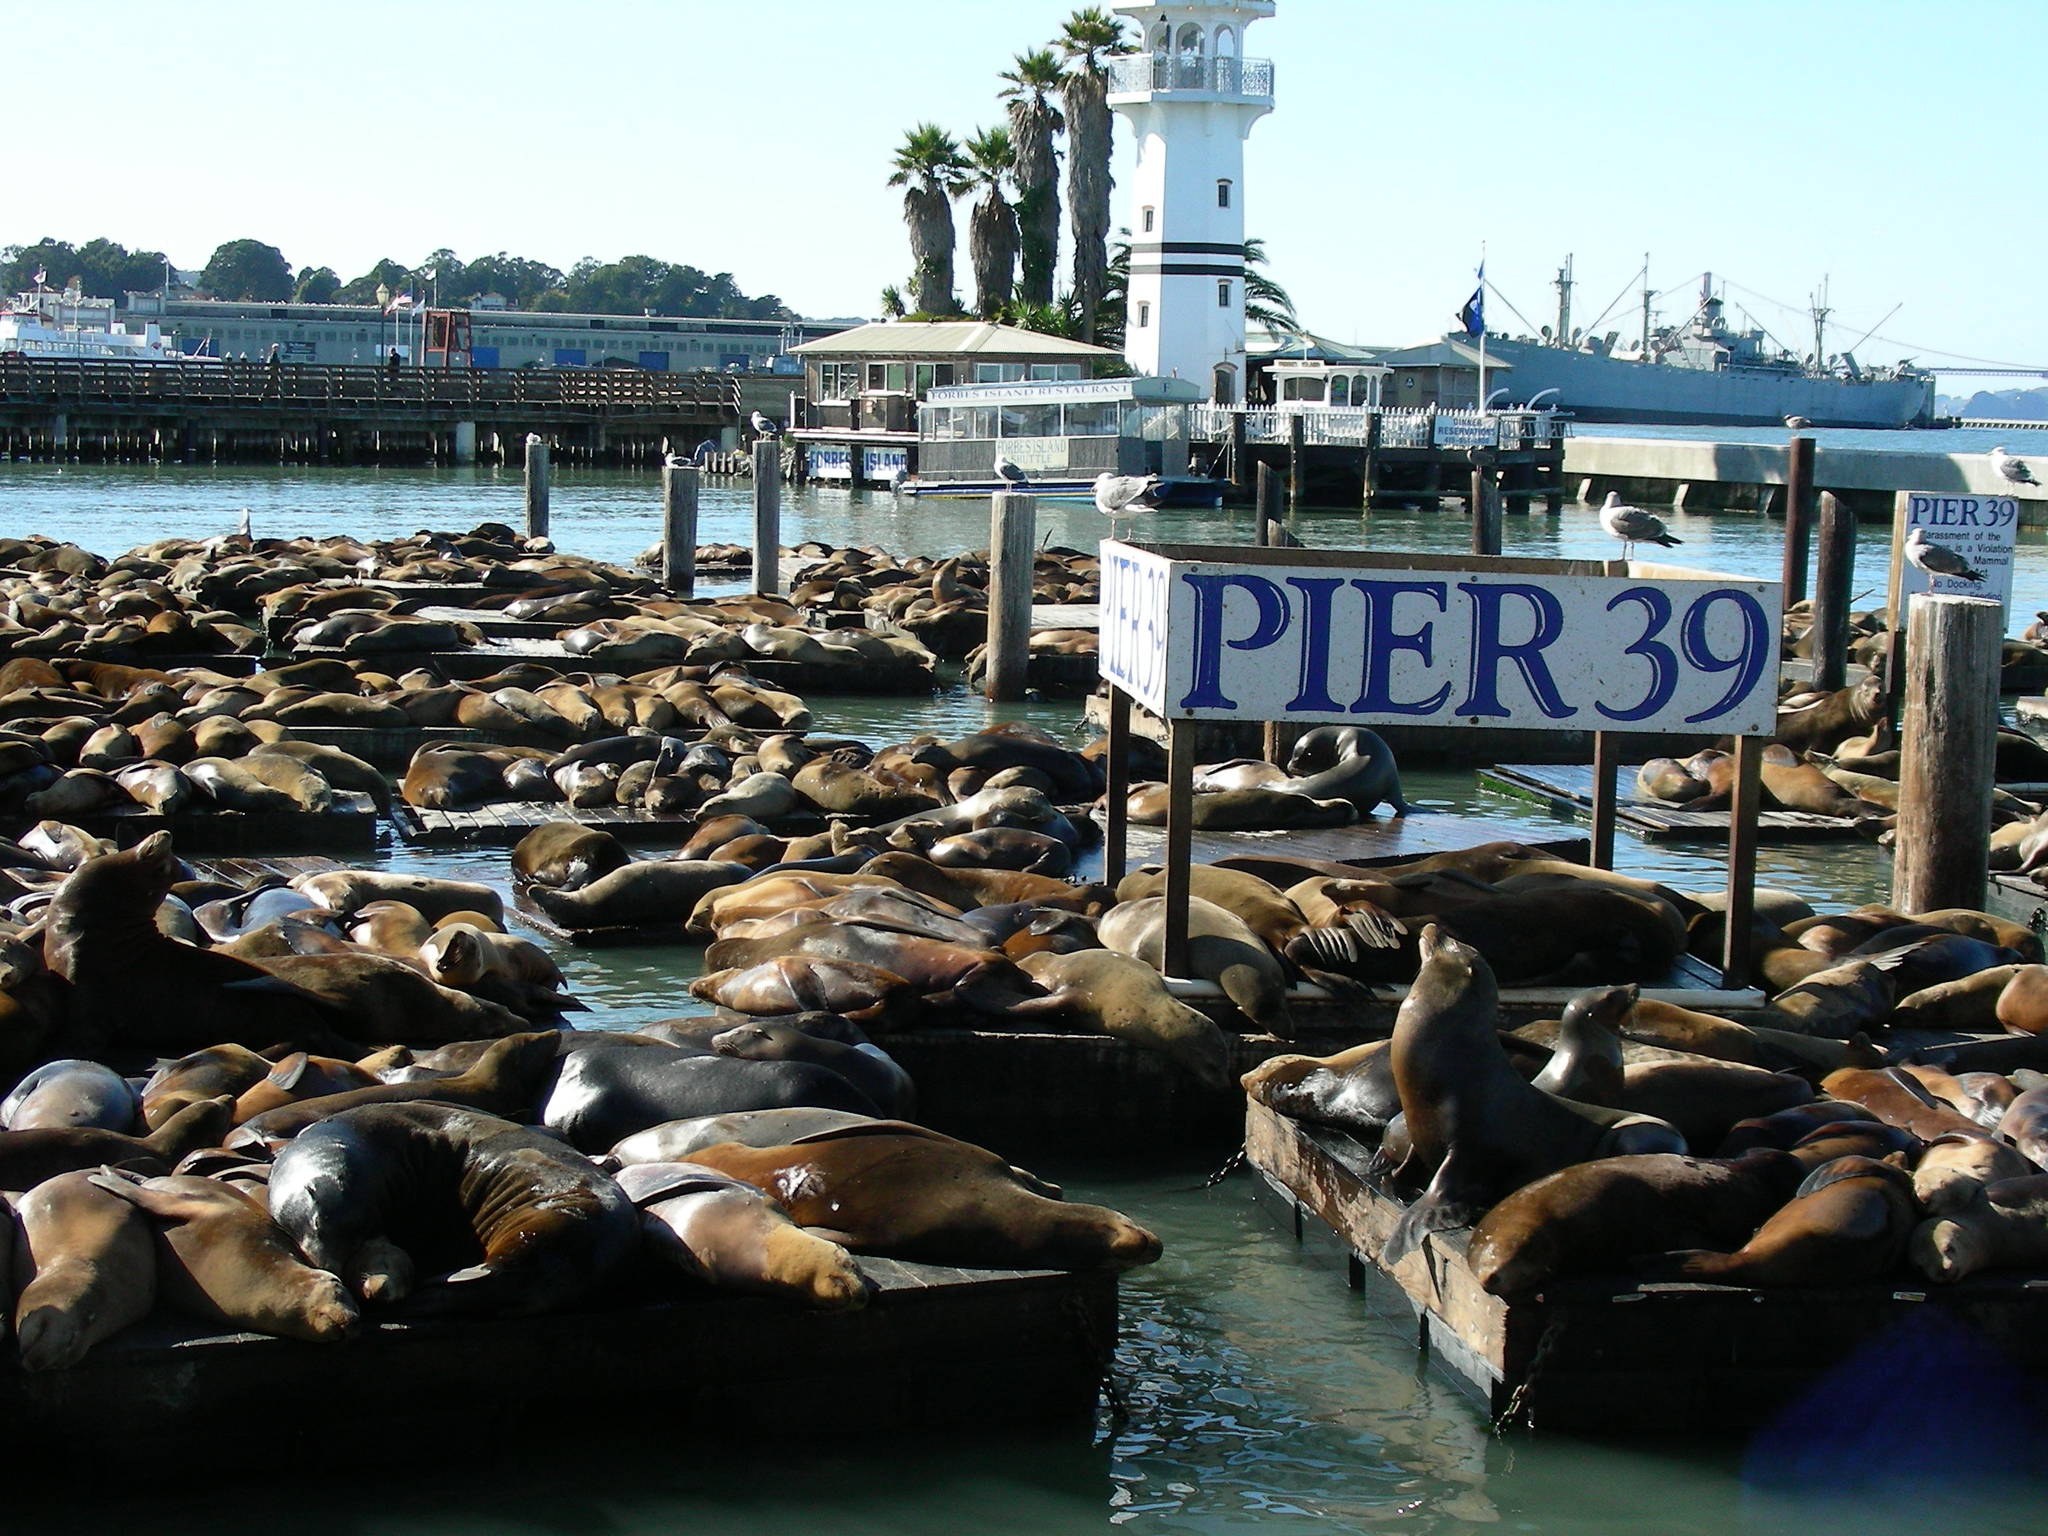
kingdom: Animalia
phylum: Chordata
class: Mammalia
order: Carnivora
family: Otariidae
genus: Zalophus
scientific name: Zalophus californianus
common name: California sea lion
